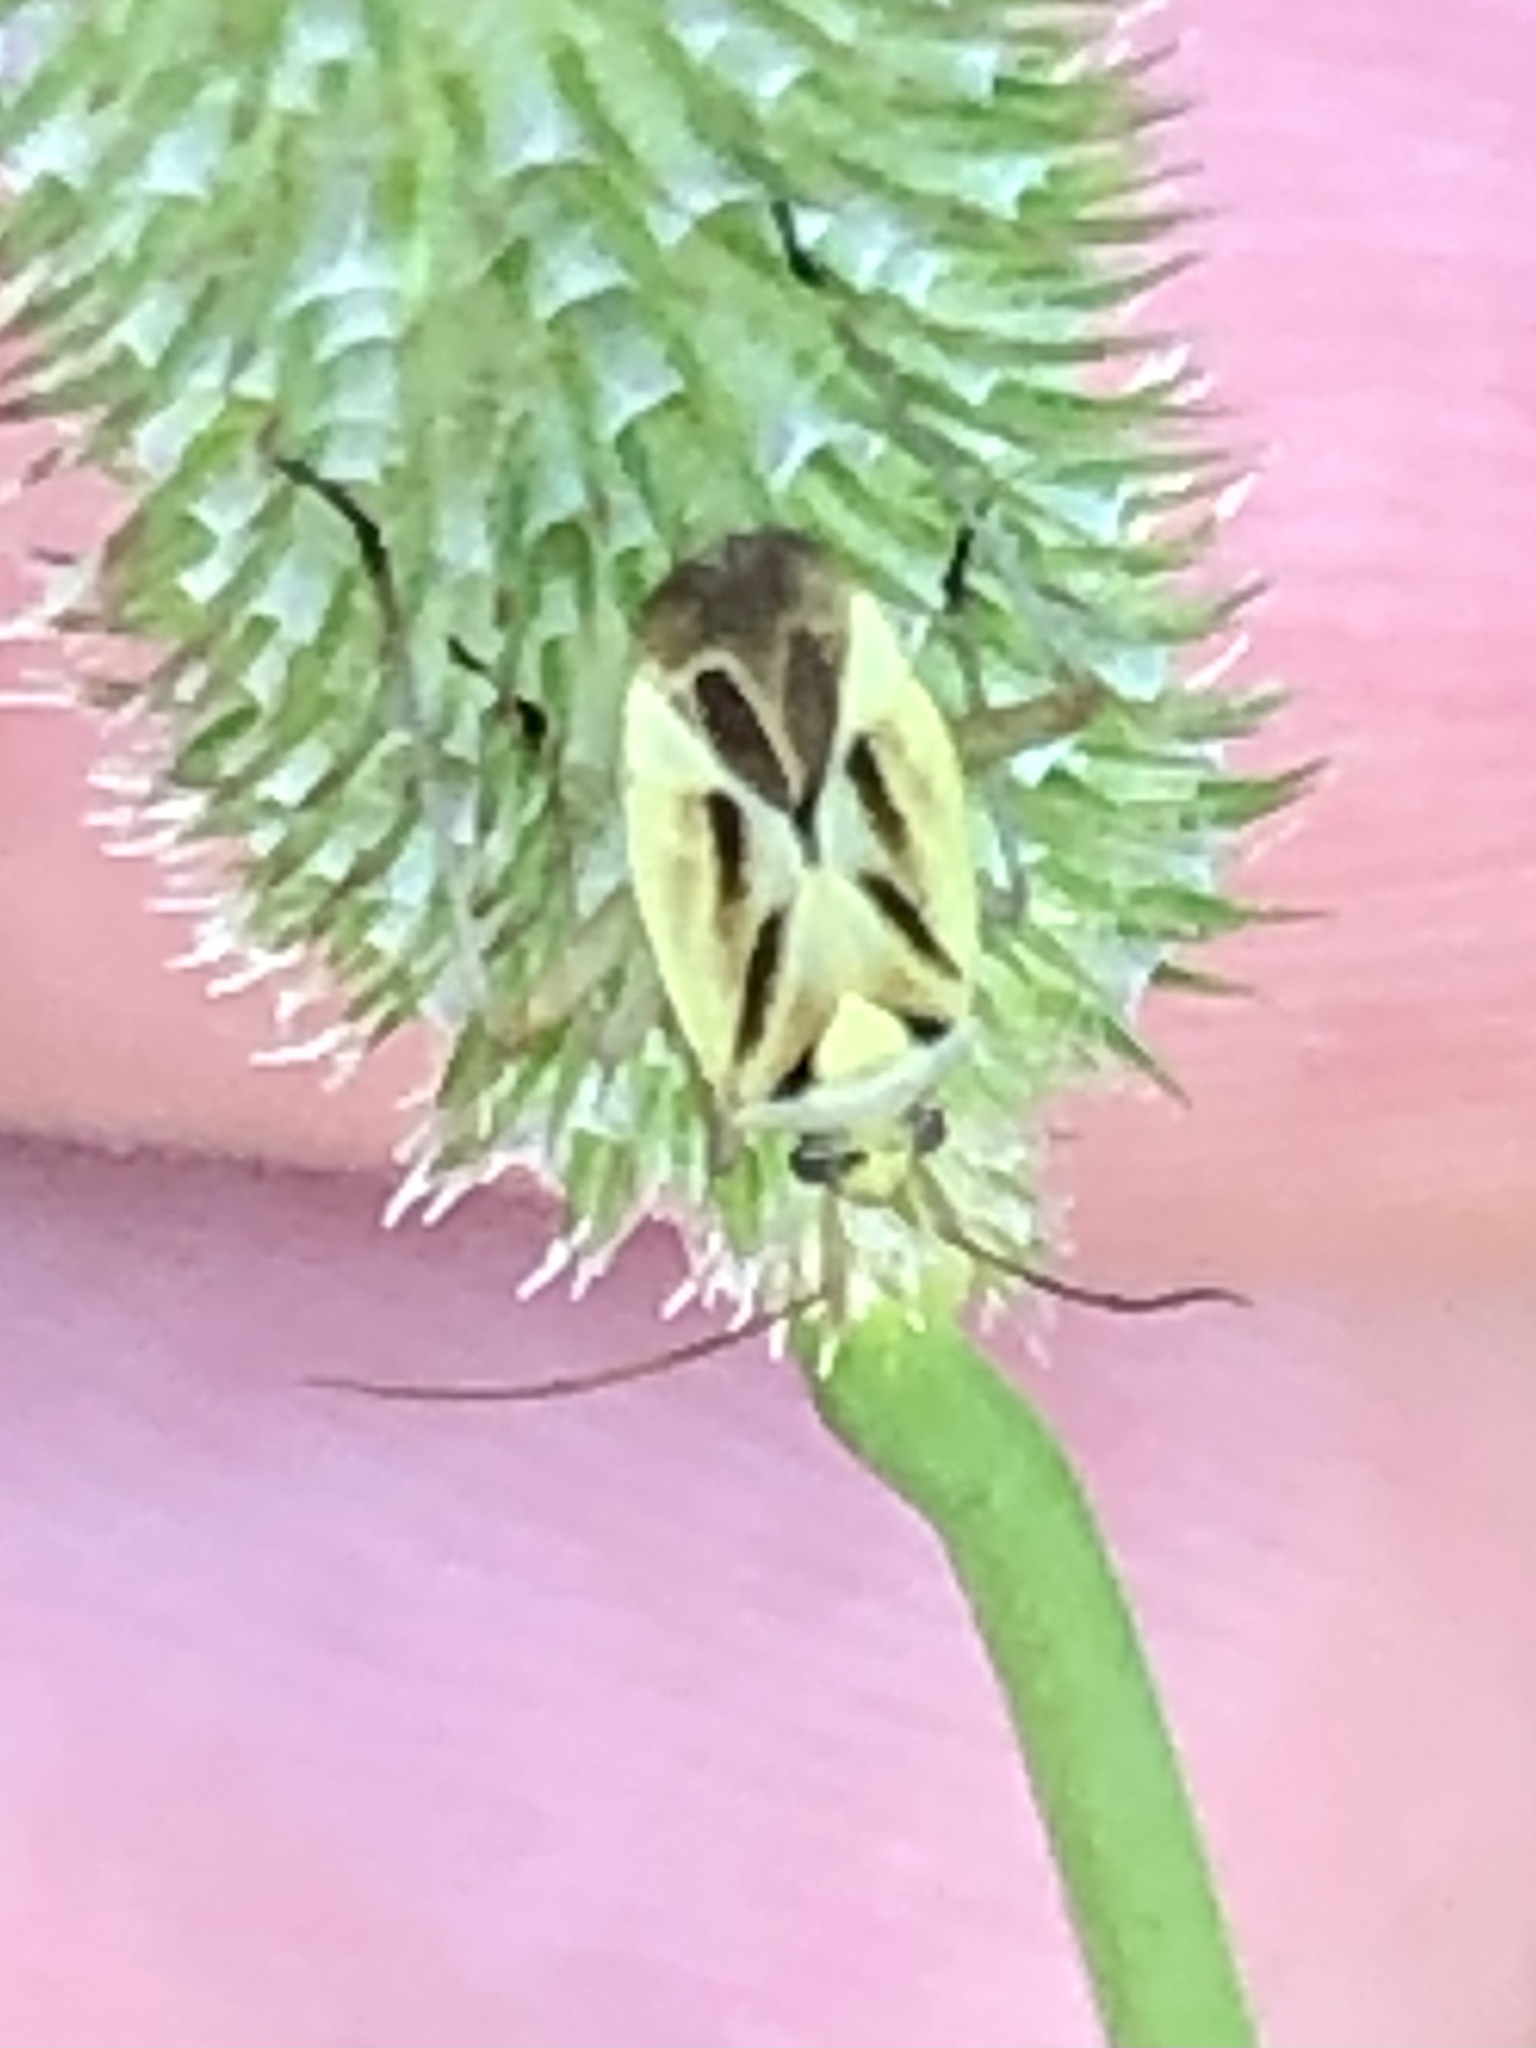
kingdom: Animalia
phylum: Arthropoda
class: Insecta
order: Hemiptera
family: Miridae
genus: Stenotus
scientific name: Stenotus binotatus
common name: Plant bug
